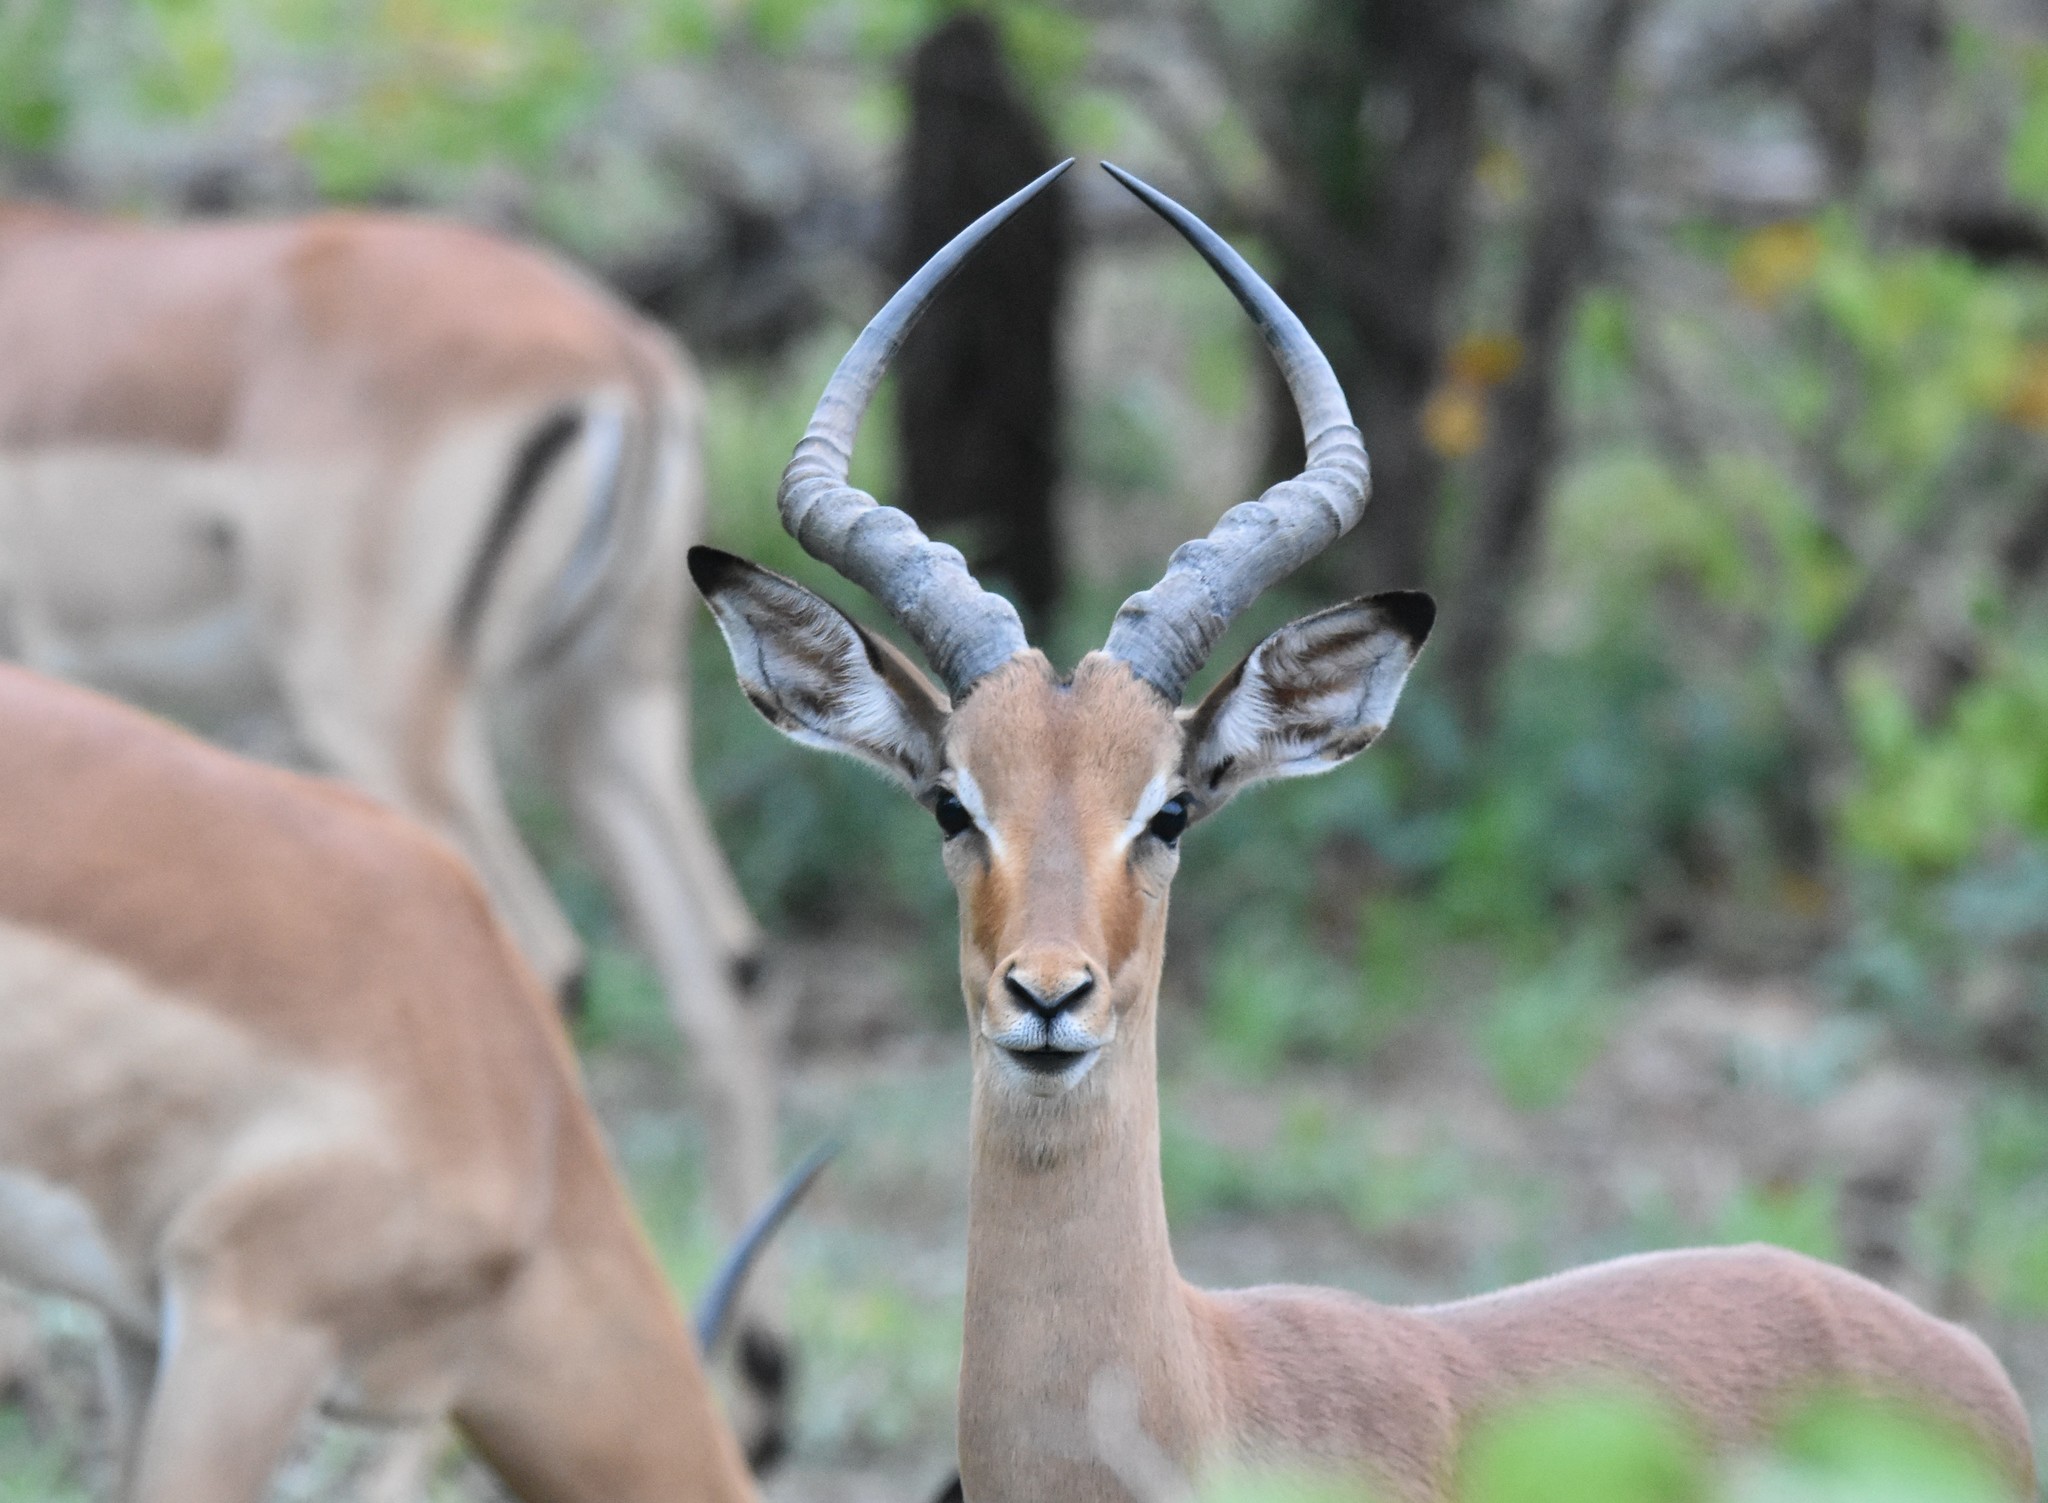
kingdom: Animalia
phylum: Chordata
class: Mammalia
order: Artiodactyla
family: Bovidae
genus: Aepyceros
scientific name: Aepyceros melampus
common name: Impala
